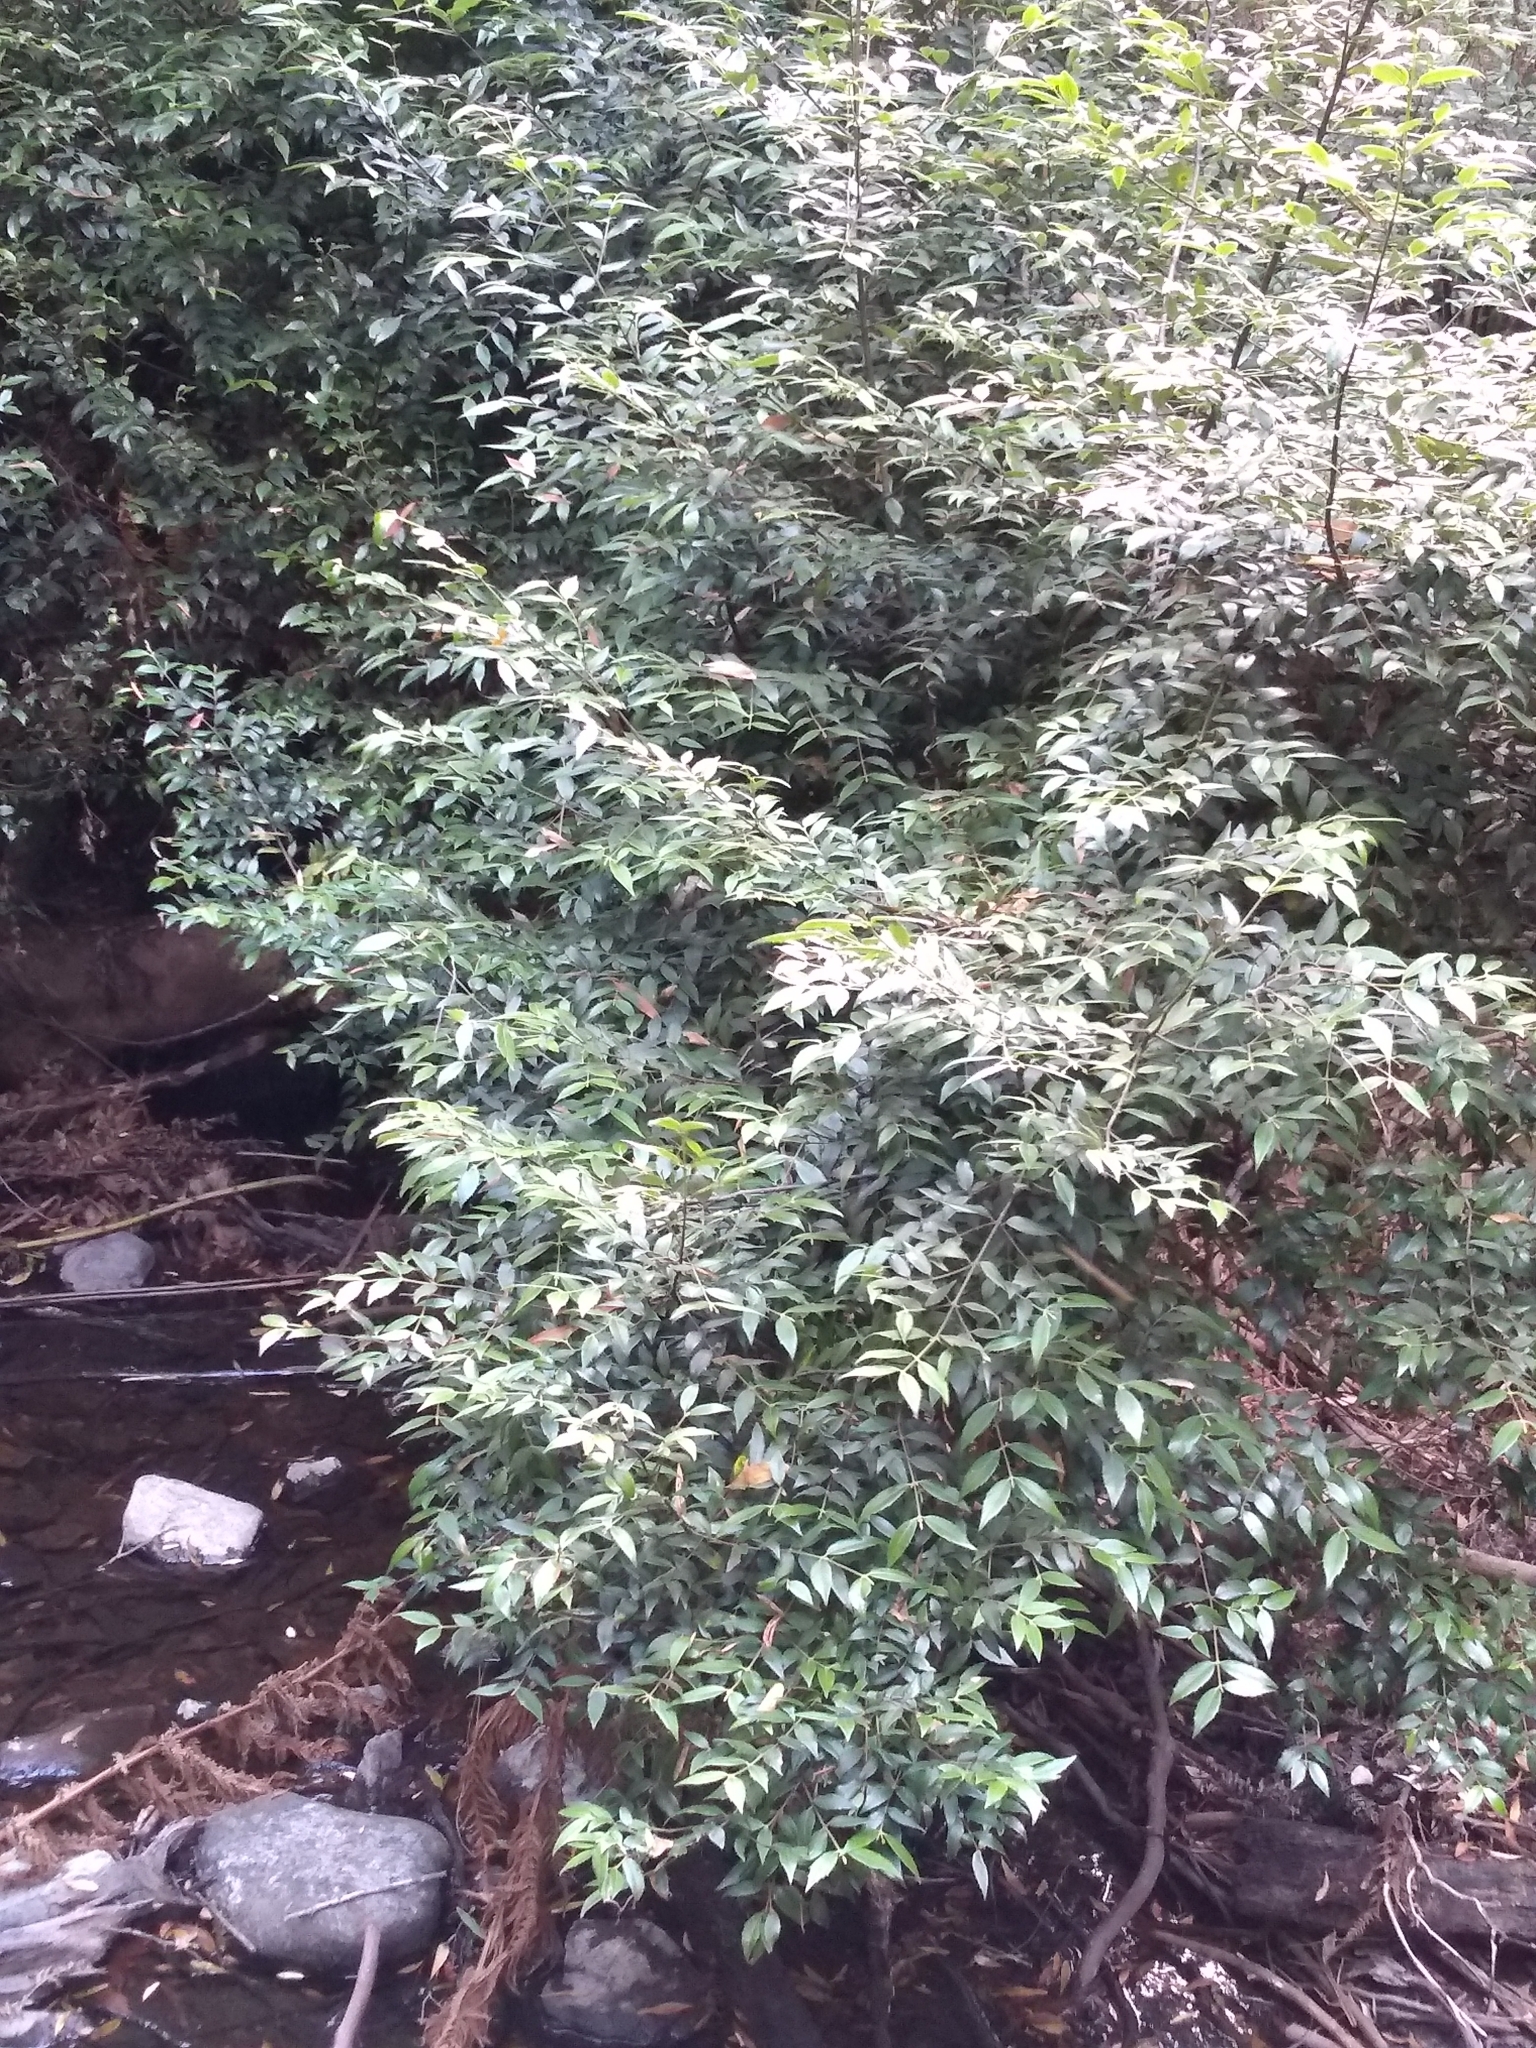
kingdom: Plantae
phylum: Tracheophyta
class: Magnoliopsida
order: Laurales
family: Atherospermataceae
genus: Atherosperma
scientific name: Atherosperma moschatum
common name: Tasmanian-sassafras
